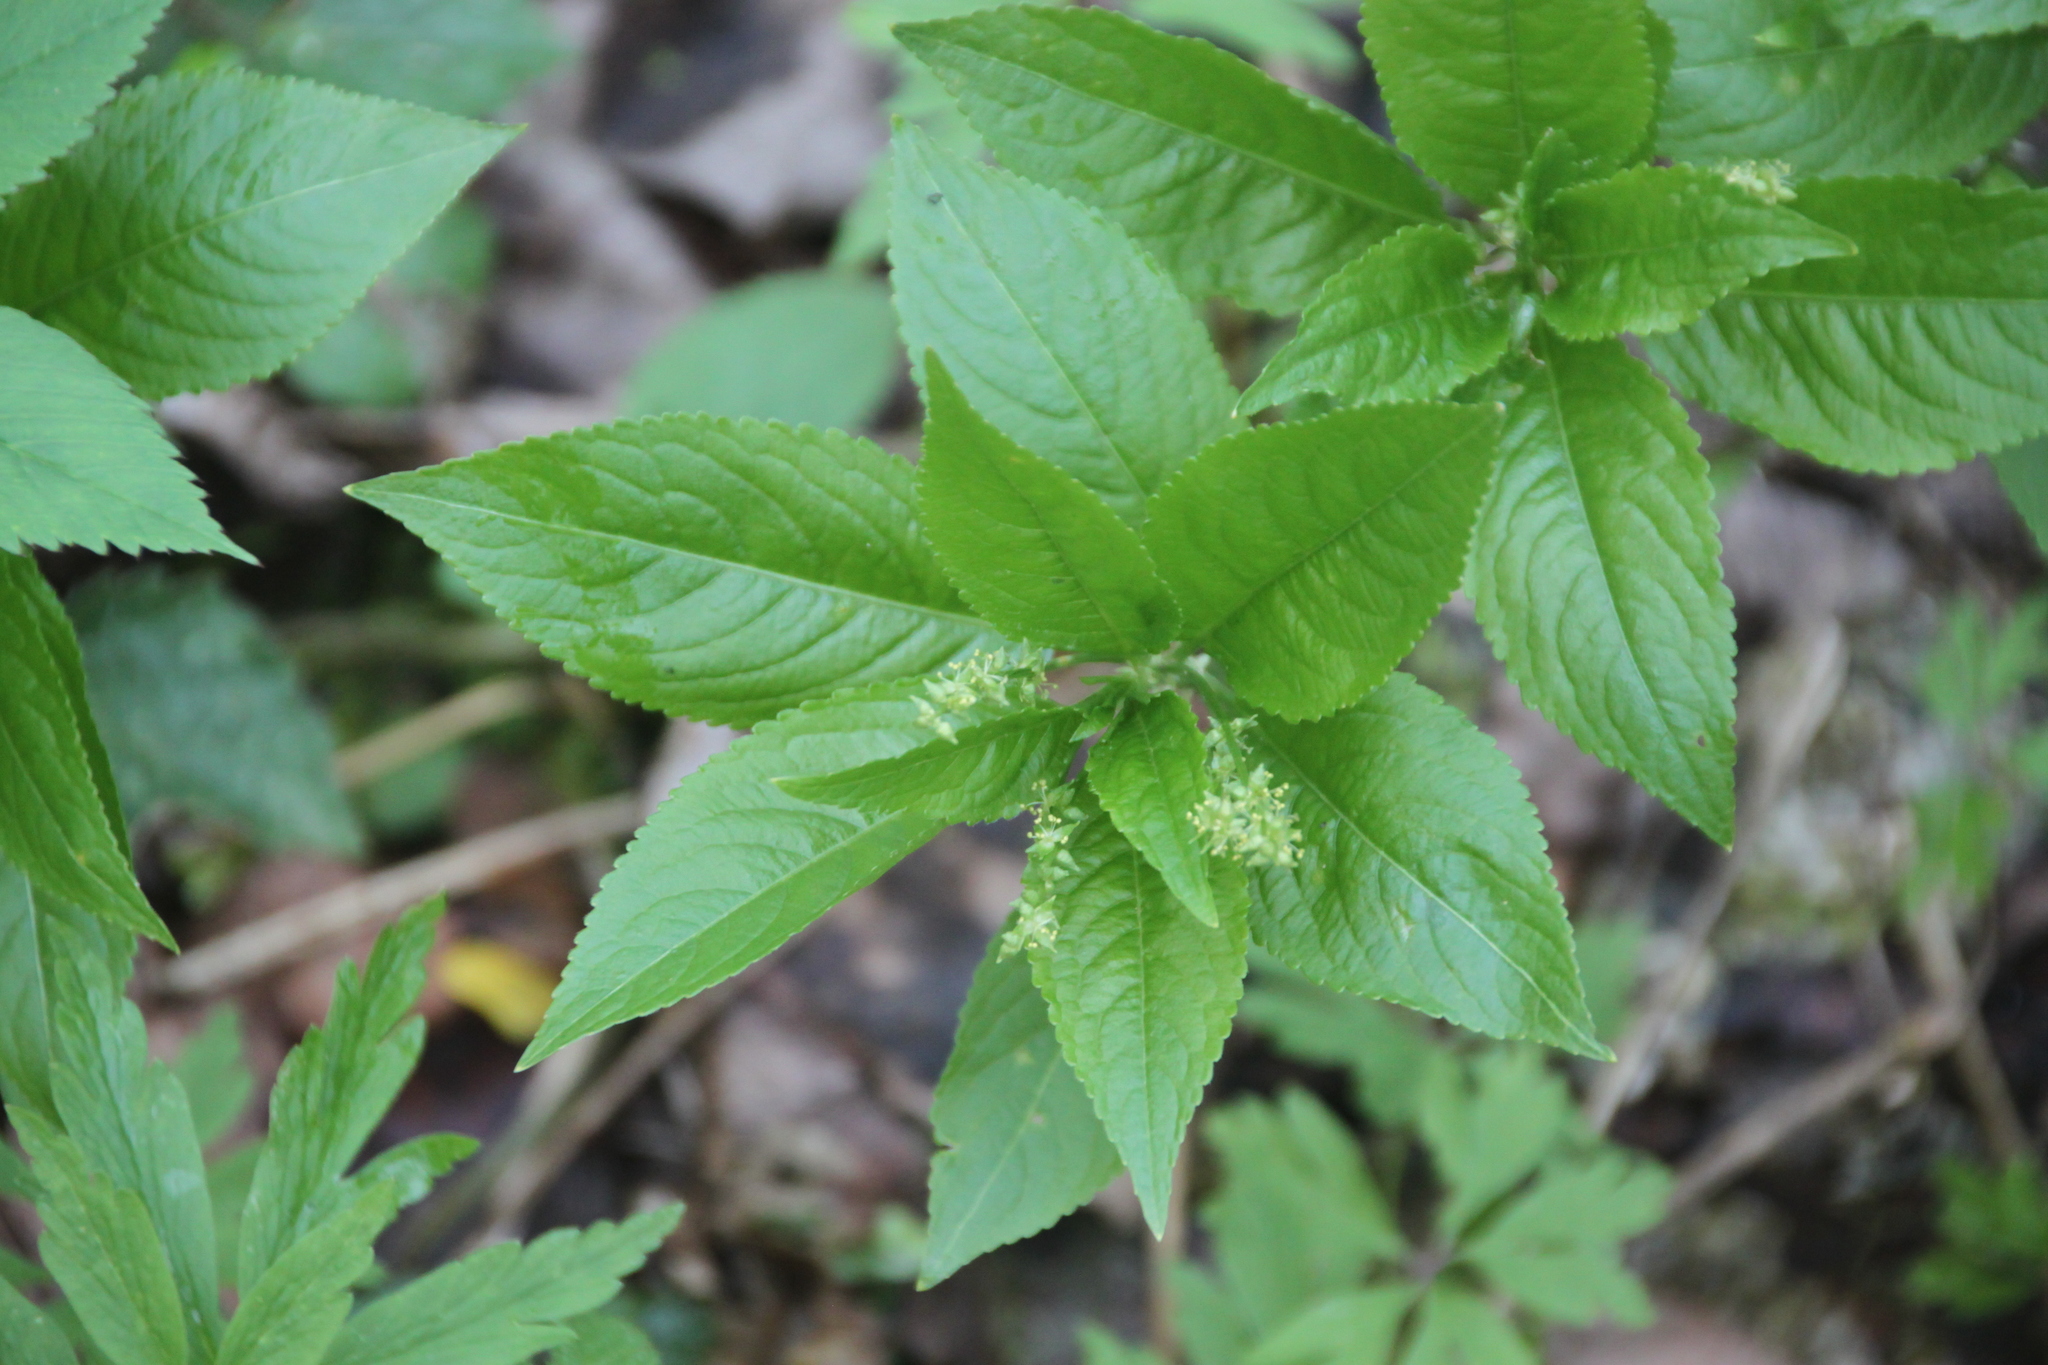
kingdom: Plantae
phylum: Tracheophyta
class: Magnoliopsida
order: Malpighiales
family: Euphorbiaceae
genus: Mercurialis
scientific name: Mercurialis perennis
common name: Dog mercury
